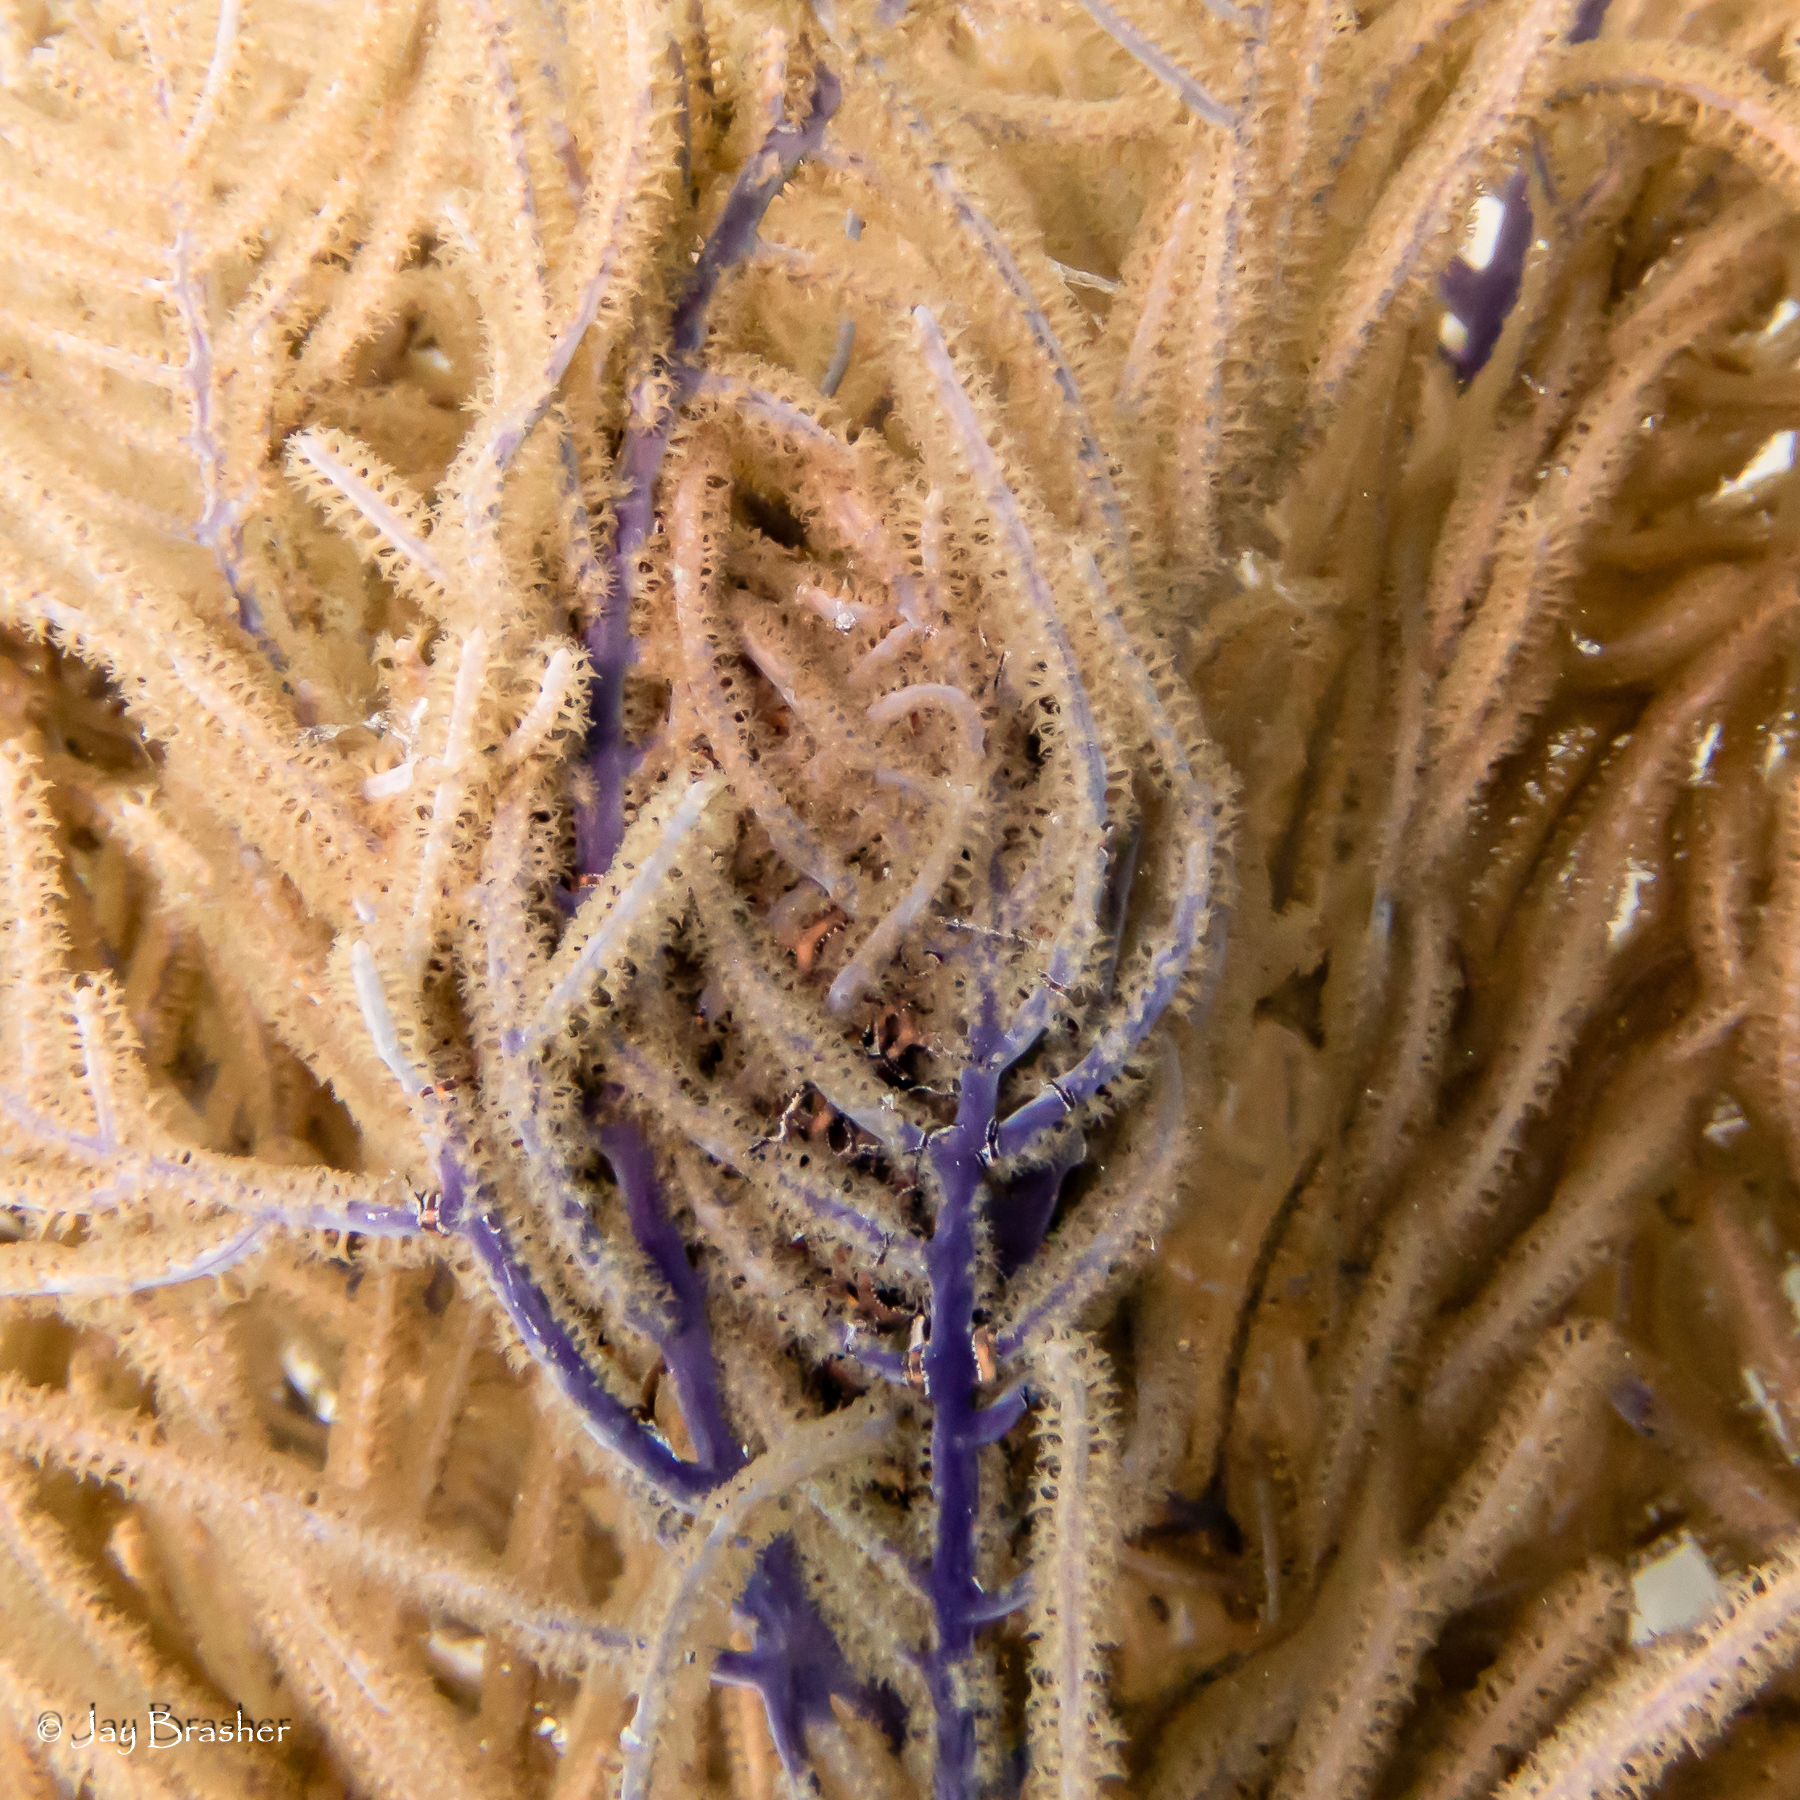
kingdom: Animalia
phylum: Echinodermata
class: Ophiuroidea
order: Euryalida
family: Gorgonocephalidae
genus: Astrophyton
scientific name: Astrophyton muricatum
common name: Basket starfish
